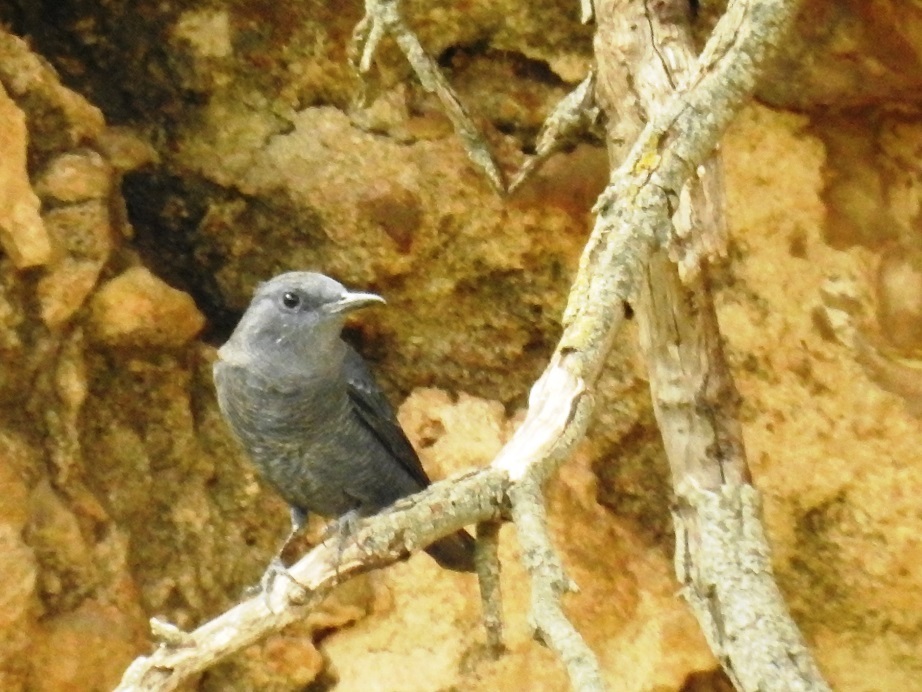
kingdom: Animalia
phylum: Chordata
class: Aves
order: Passeriformes
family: Muscicapidae
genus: Monticola
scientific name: Monticola solitarius
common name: Blue rock thrush
